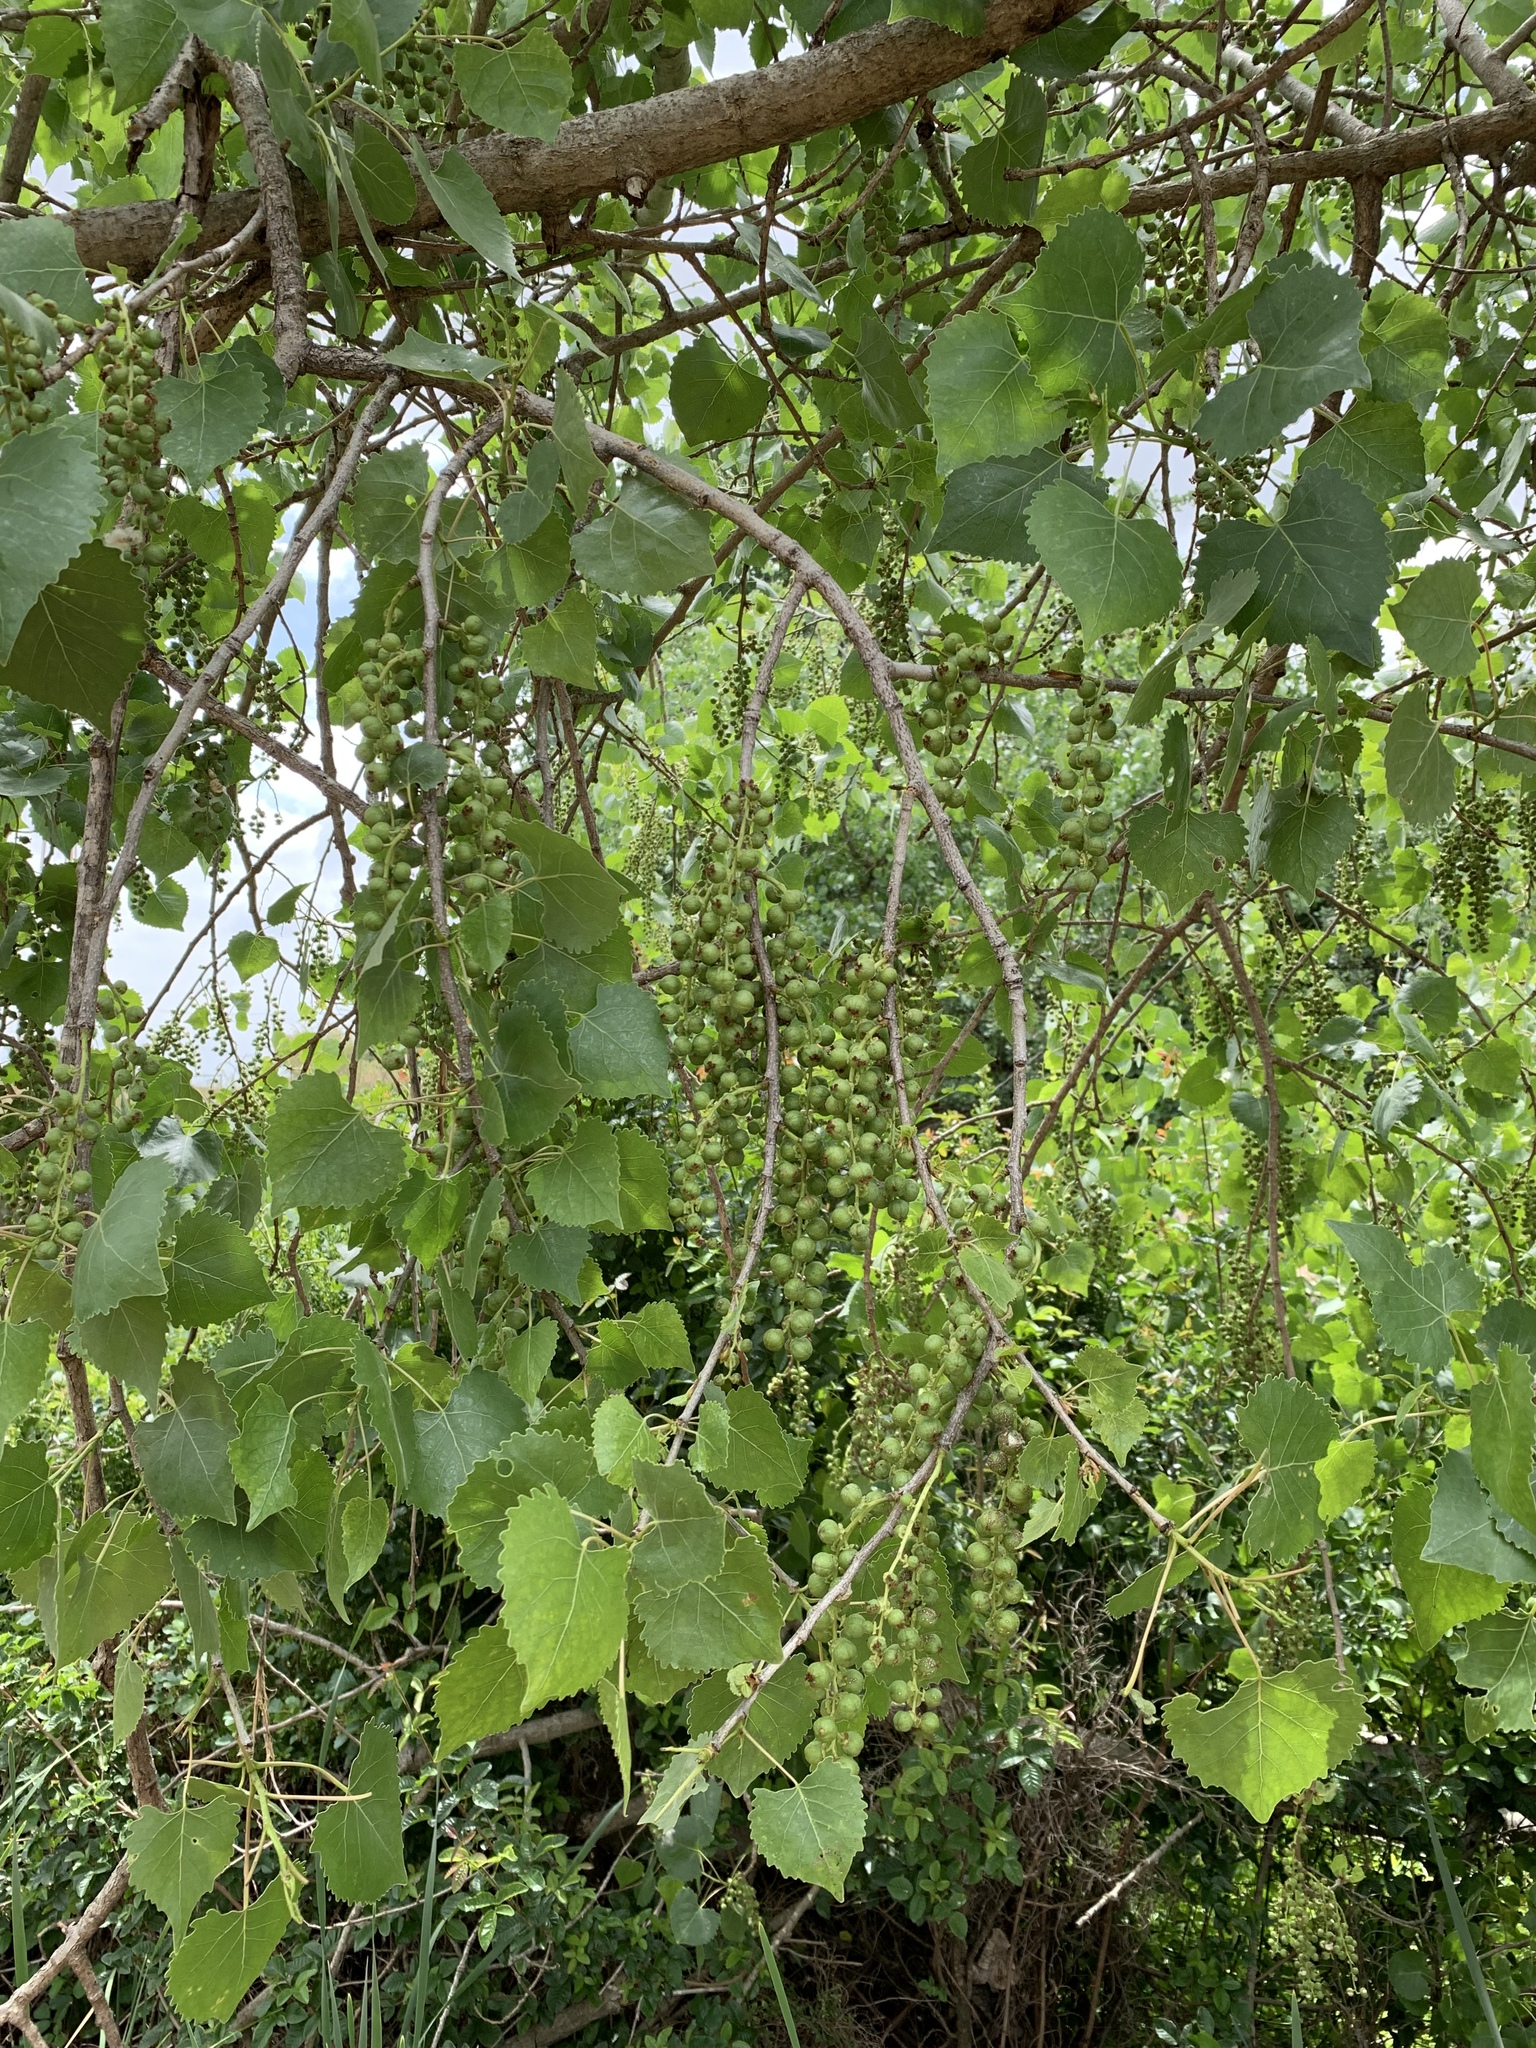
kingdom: Plantae
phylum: Tracheophyta
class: Magnoliopsida
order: Malpighiales
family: Salicaceae
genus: Populus
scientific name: Populus fremontii
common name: Fremont's cottonwood
